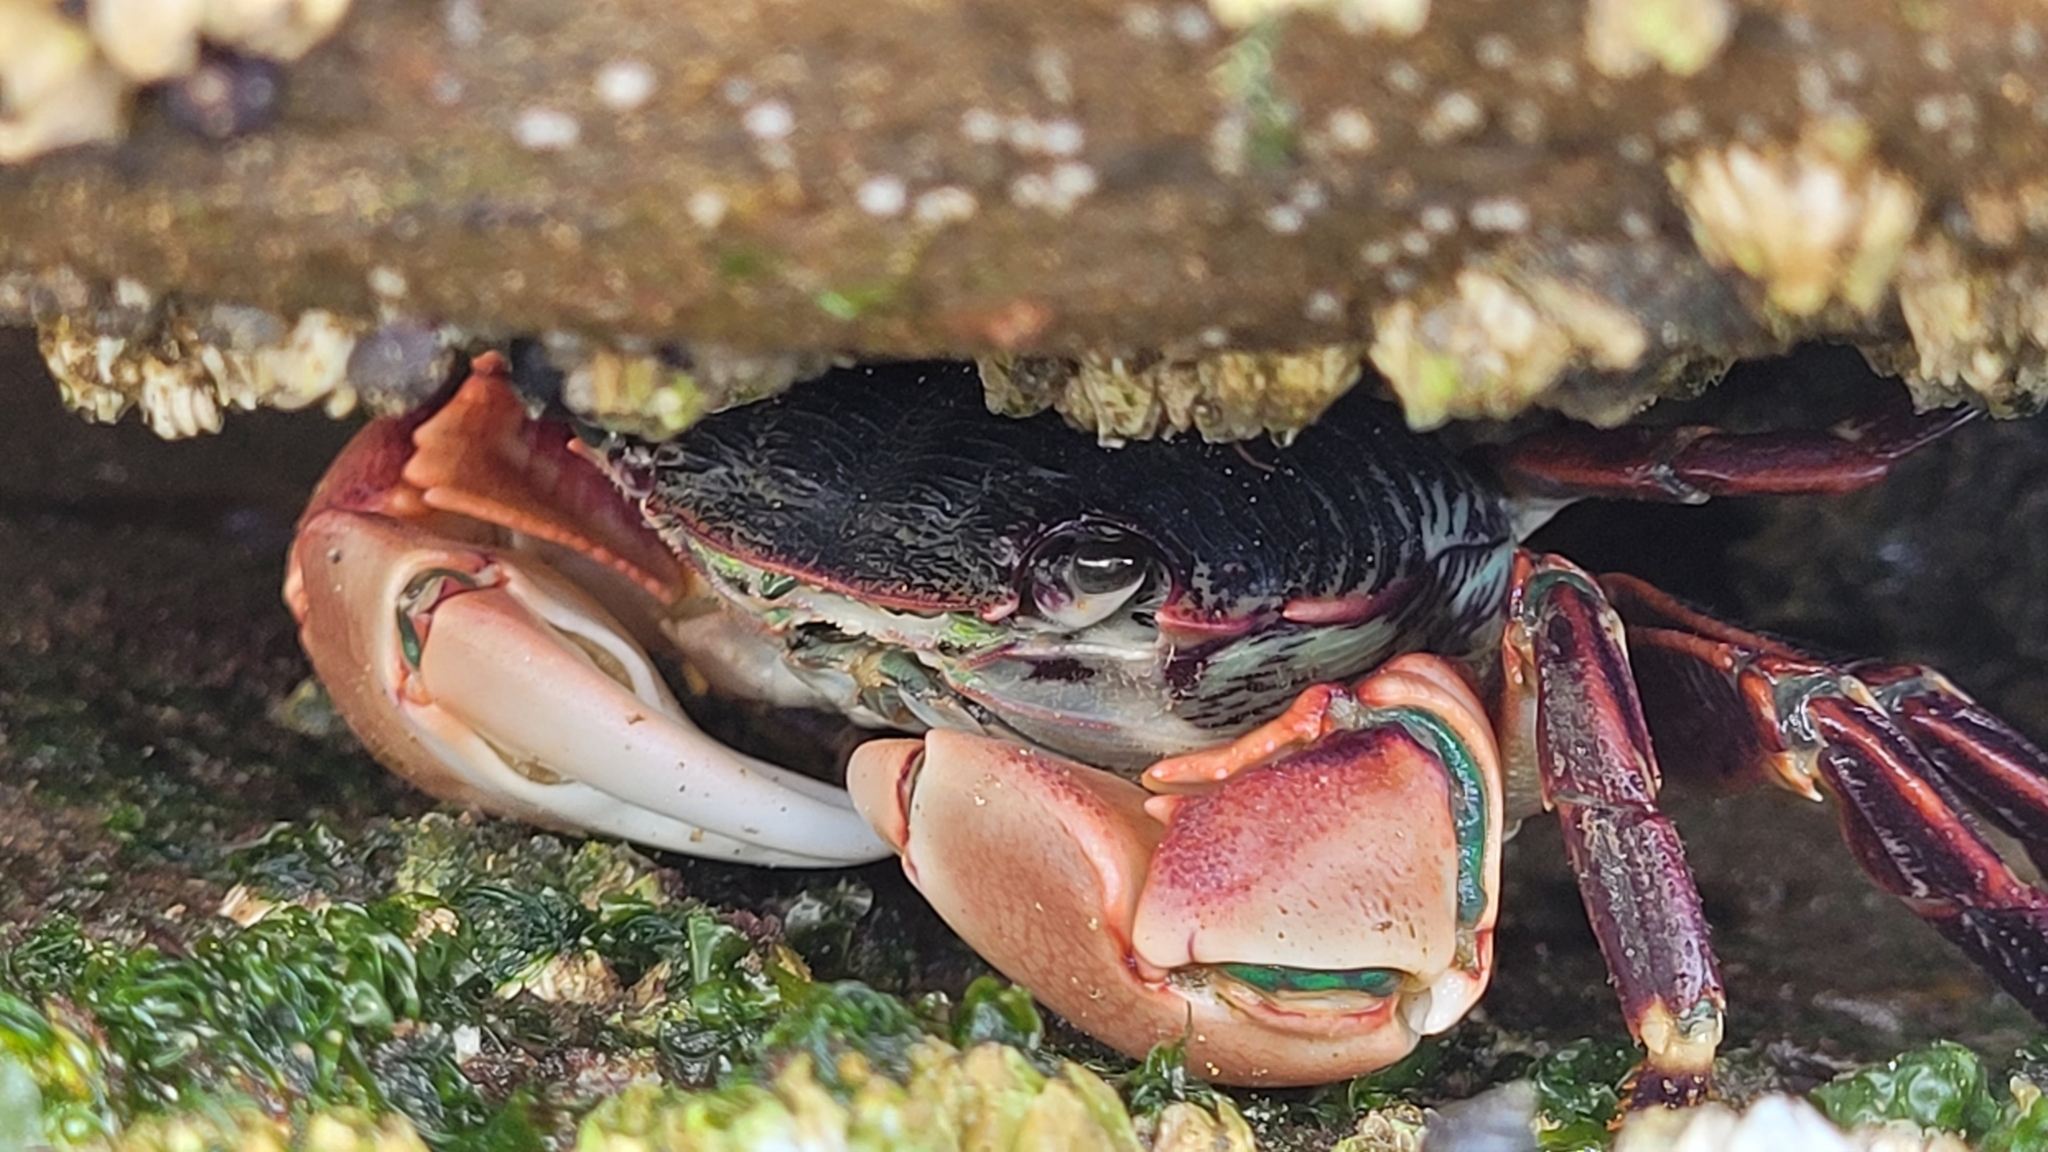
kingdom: Animalia
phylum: Arthropoda
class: Malacostraca
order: Decapoda
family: Grapsidae
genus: Pachygrapsus
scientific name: Pachygrapsus crassipes
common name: Striped shore crab
